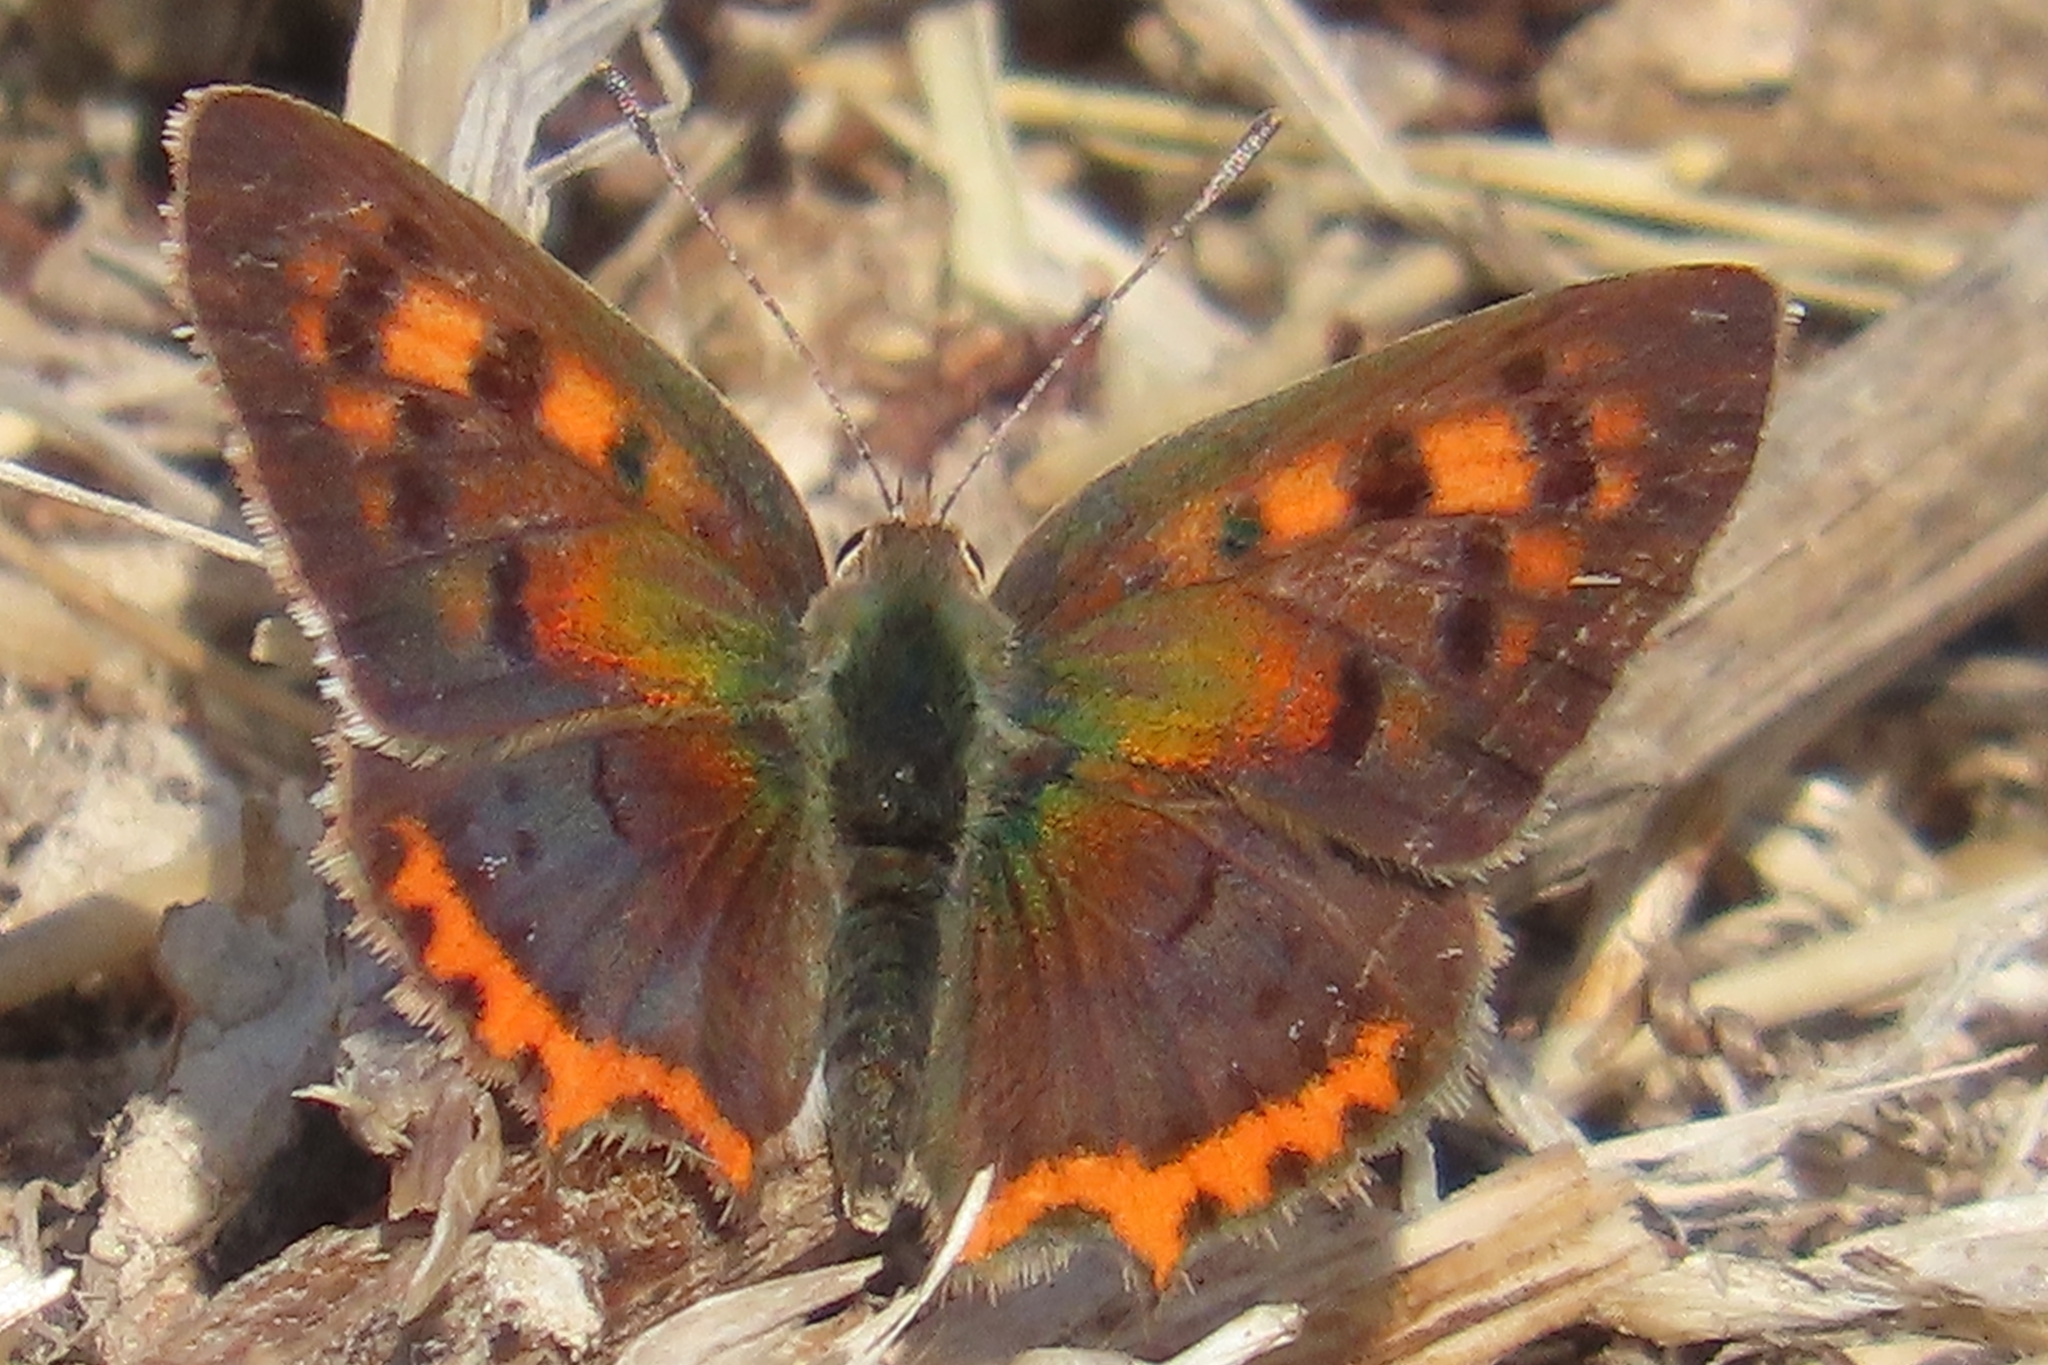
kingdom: Animalia
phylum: Arthropoda
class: Insecta
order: Lepidoptera
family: Lycaenidae
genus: Lycaena
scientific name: Lycaena phlaeas
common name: Small copper
